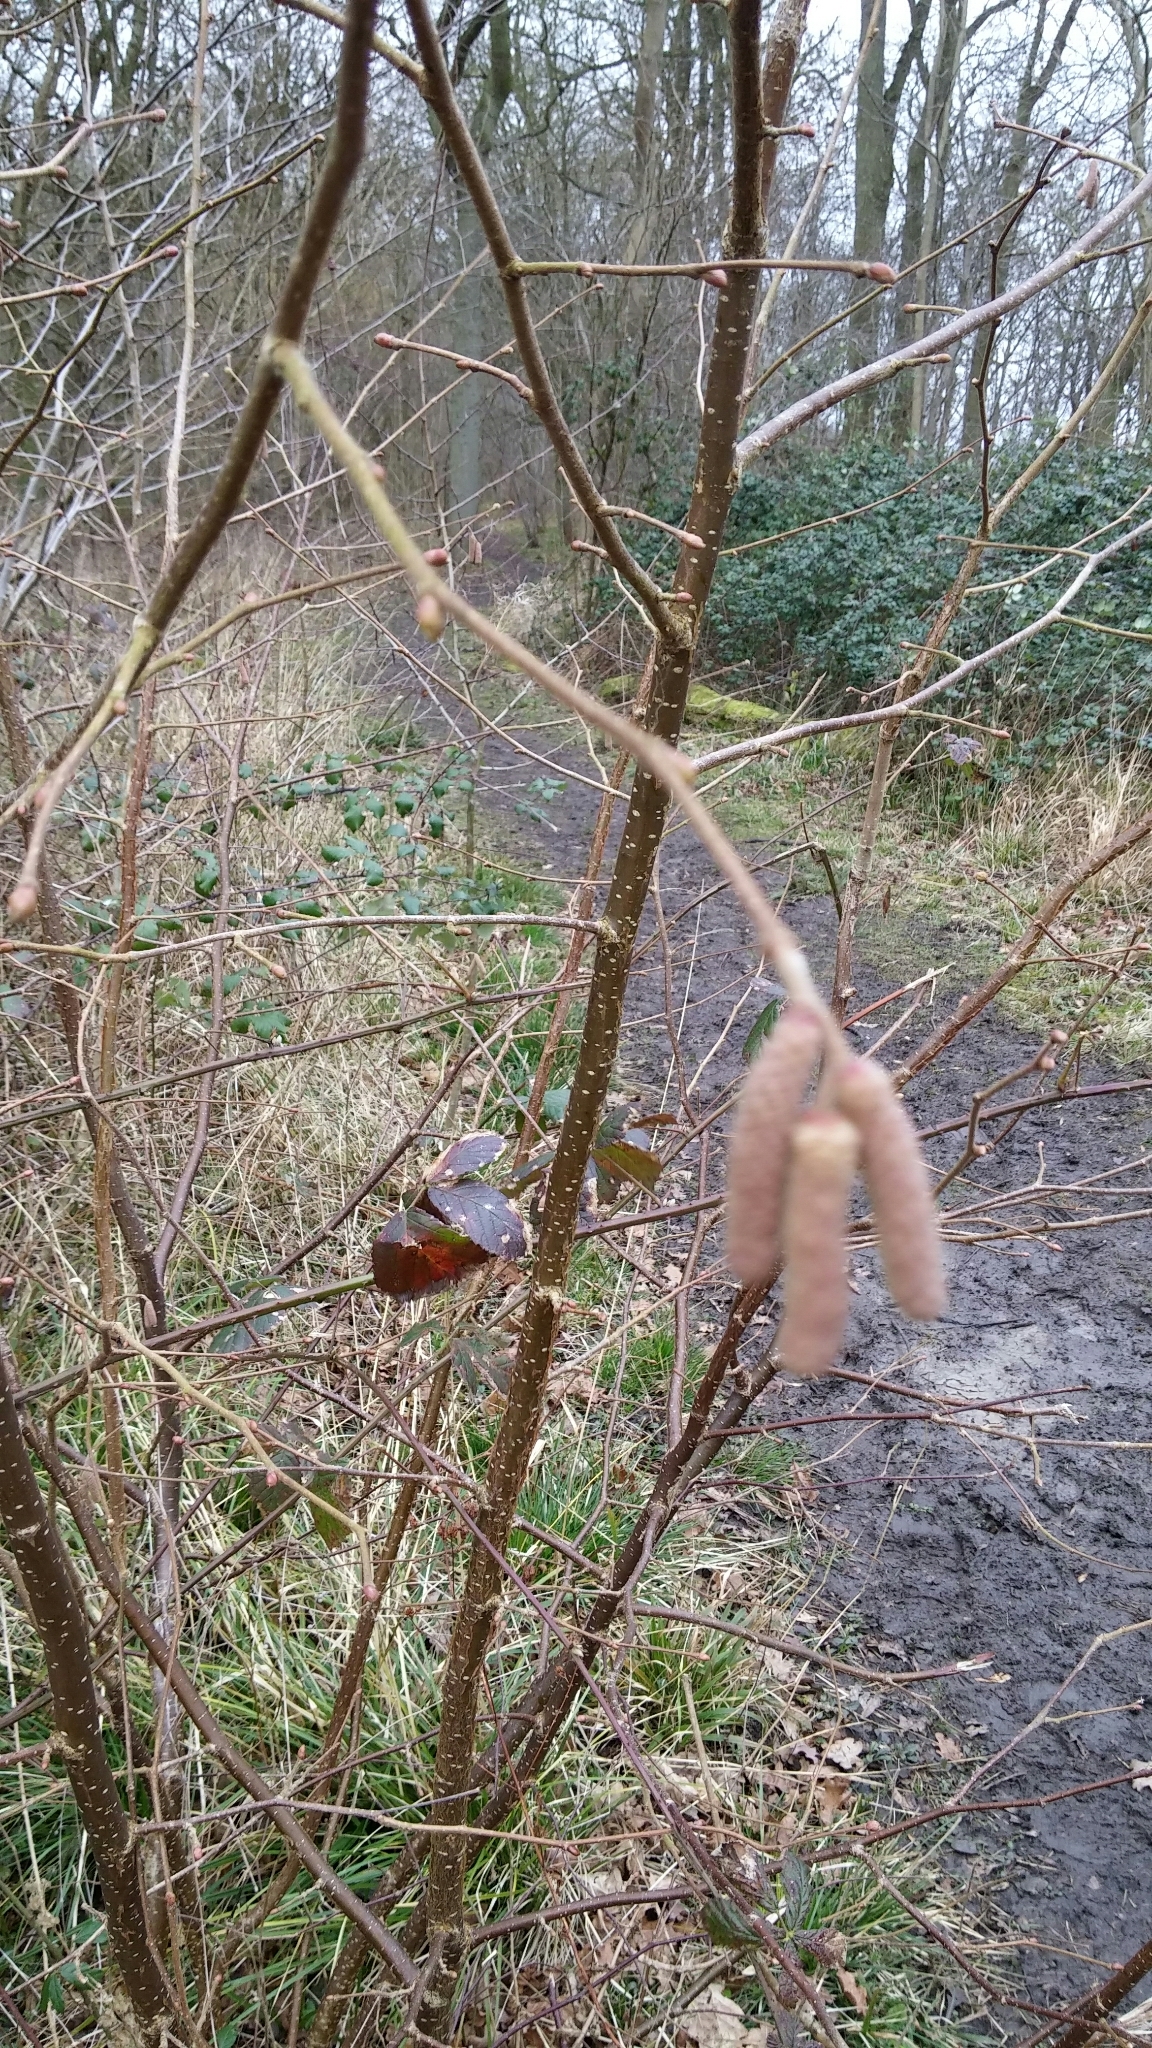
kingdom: Plantae
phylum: Tracheophyta
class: Magnoliopsida
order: Fagales
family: Betulaceae
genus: Corylus
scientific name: Corylus avellana
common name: European hazel
